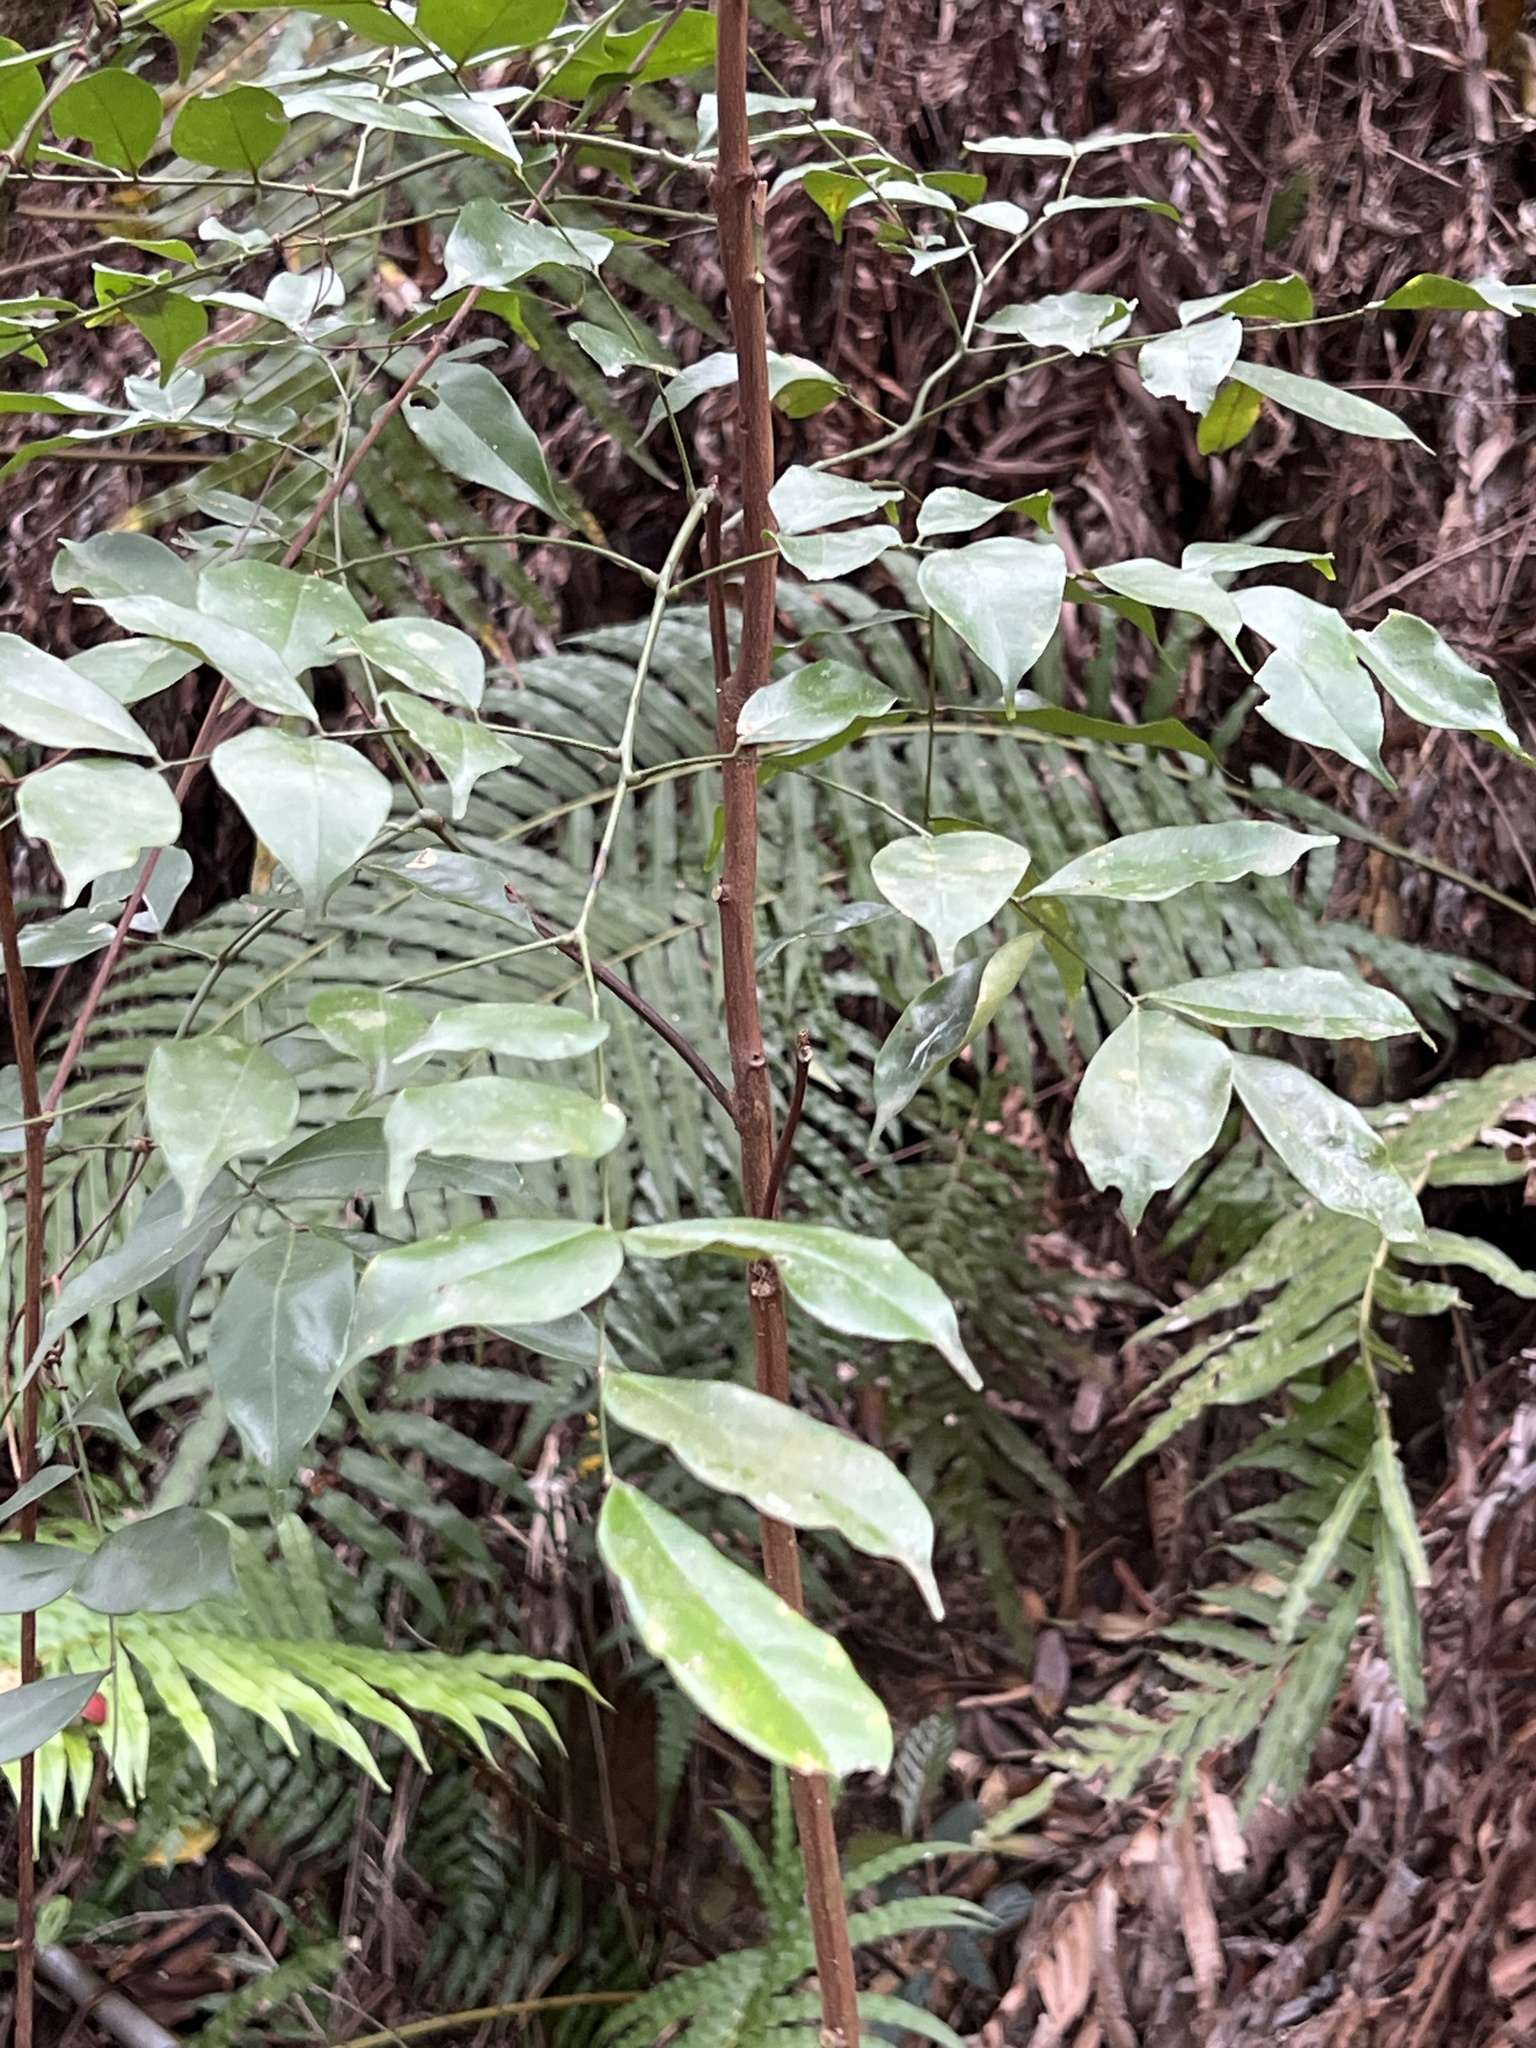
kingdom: Plantae
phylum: Tracheophyta
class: Magnoliopsida
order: Fabales
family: Fabaceae
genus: Archidendron
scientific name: Archidendron lucidum
